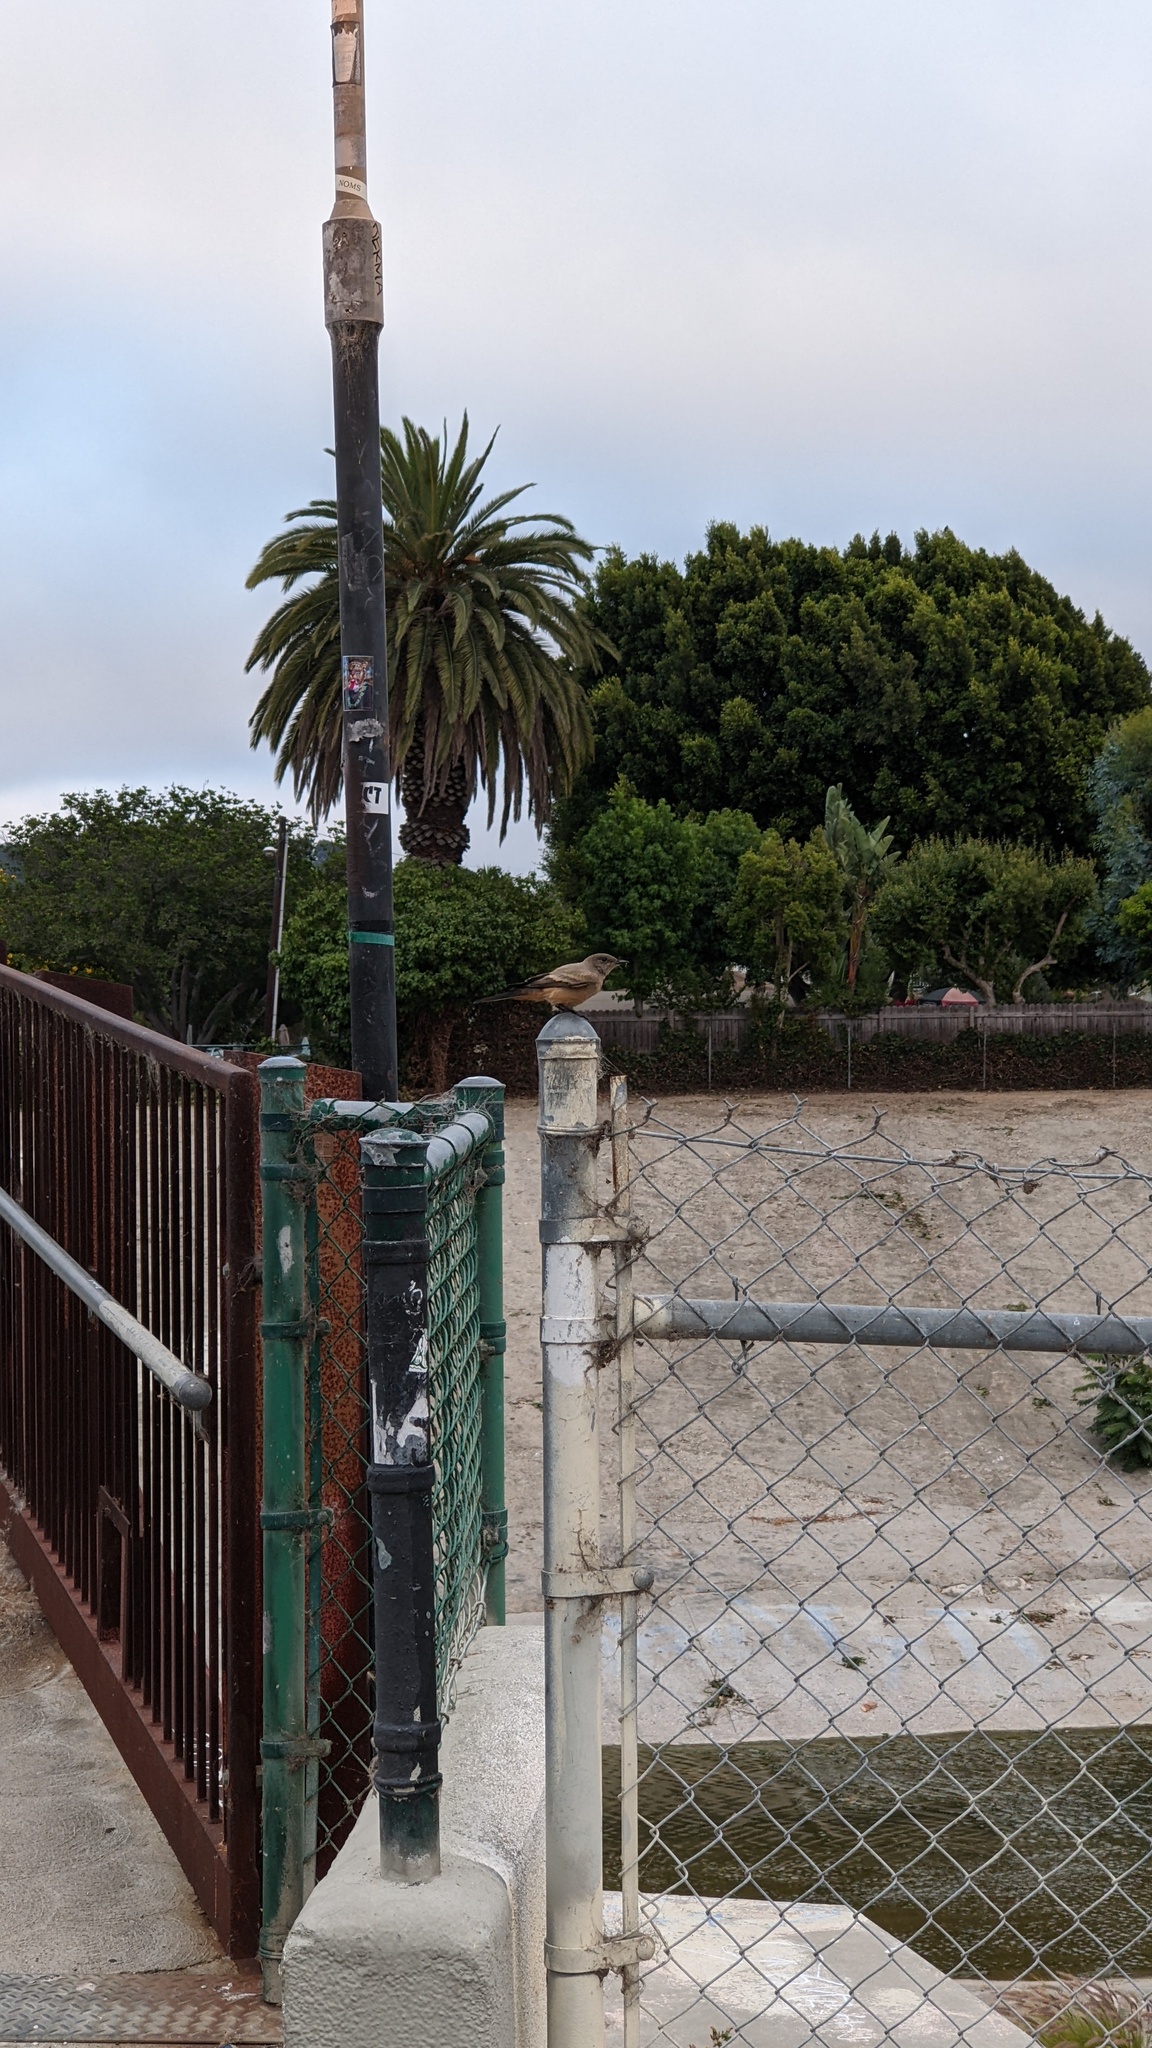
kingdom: Animalia
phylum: Chordata
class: Aves
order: Passeriformes
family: Tyrannidae
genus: Sayornis
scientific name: Sayornis saya
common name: Say's phoebe
